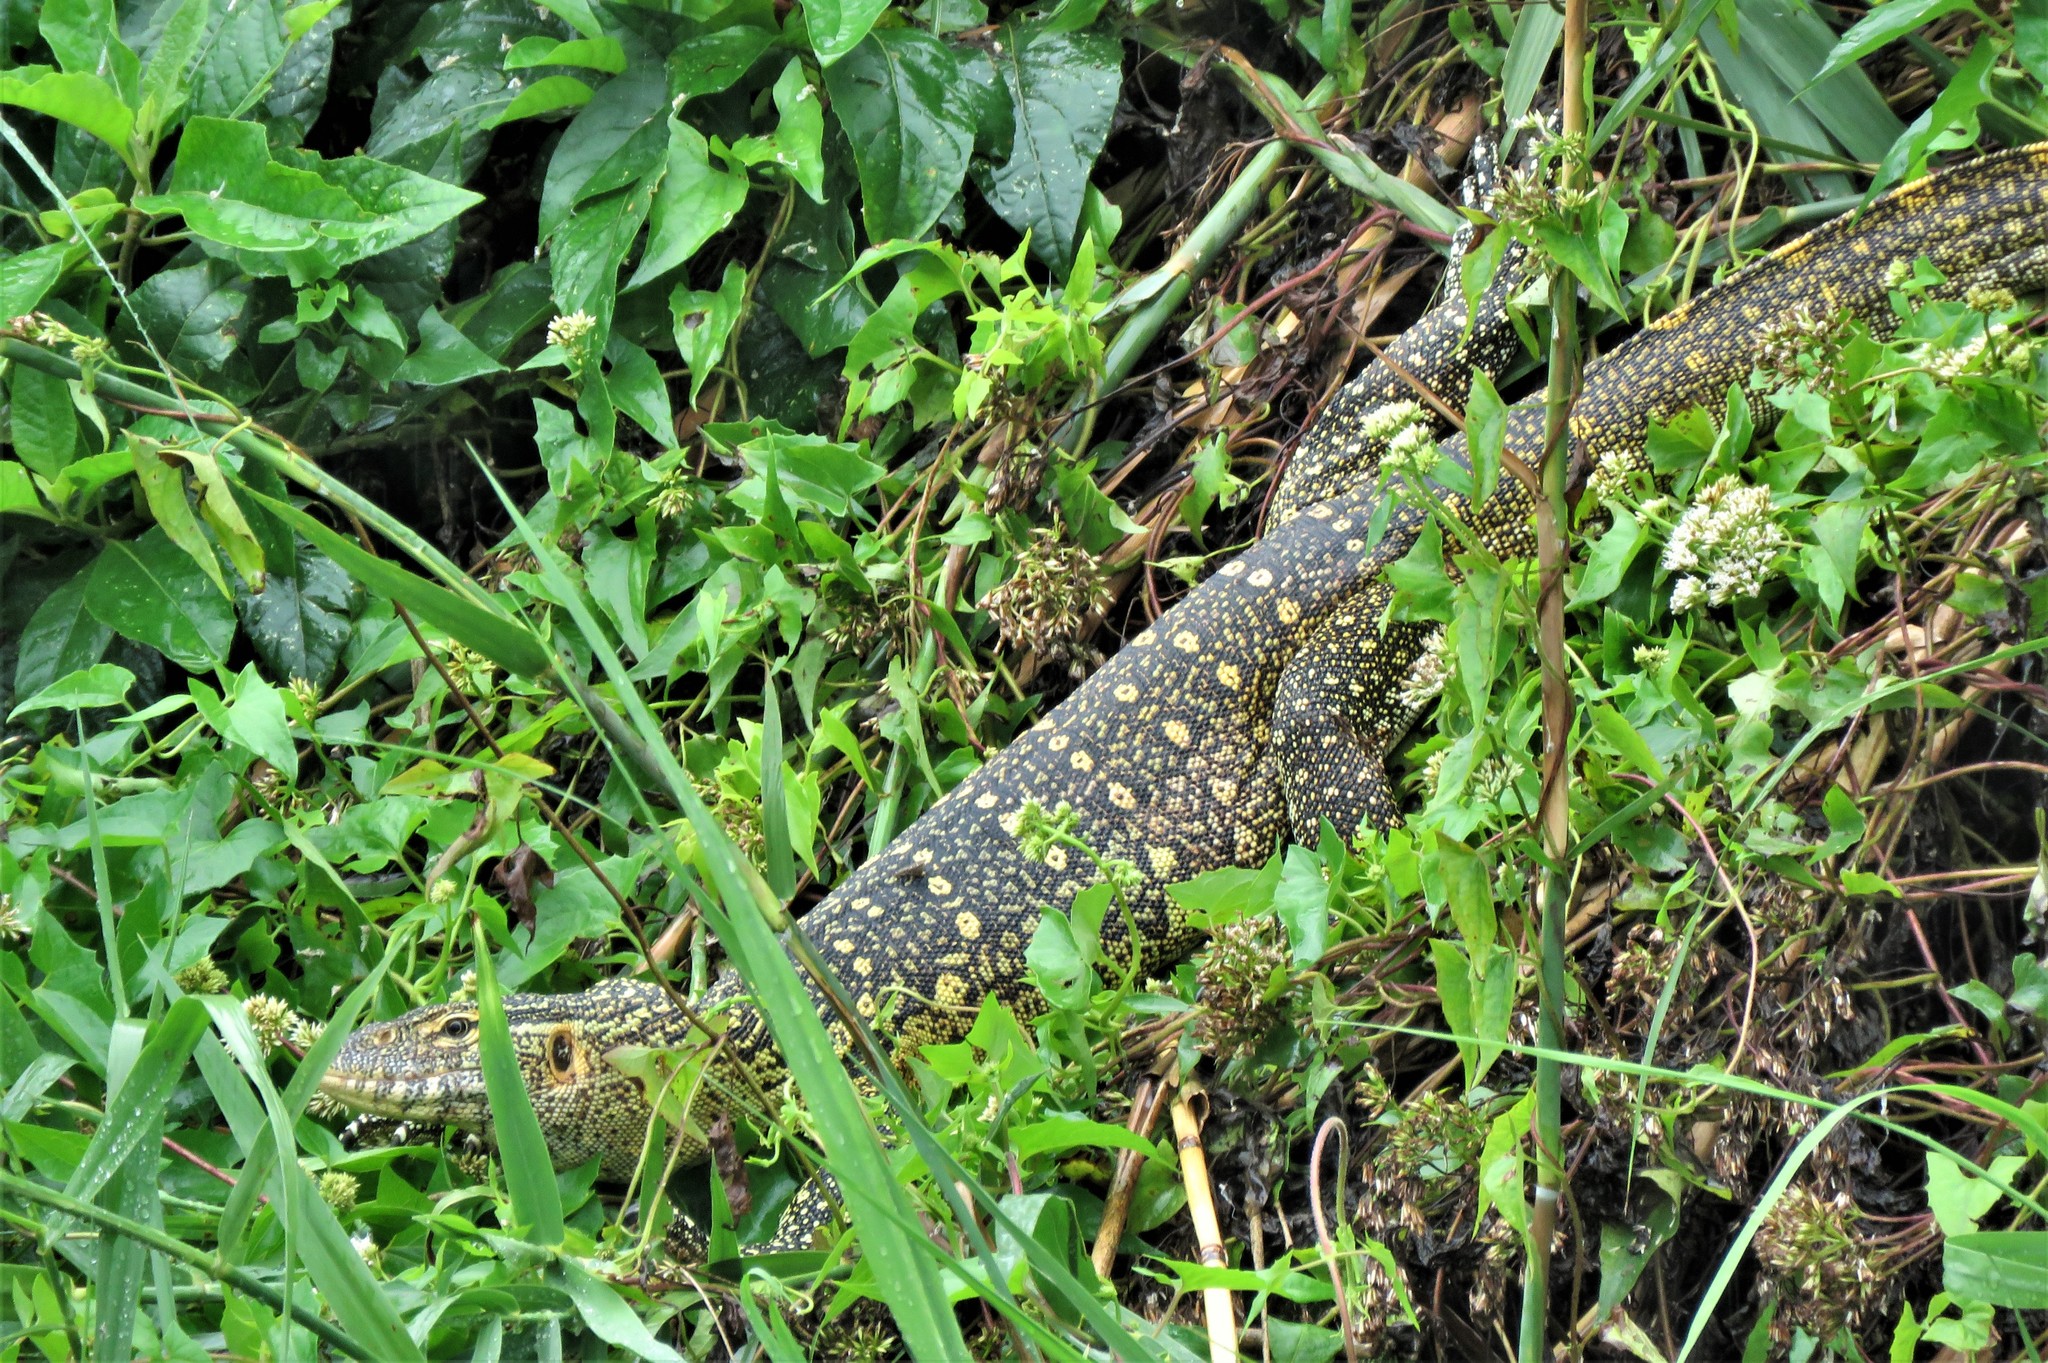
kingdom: Animalia
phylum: Chordata
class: Squamata
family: Varanidae
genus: Varanus
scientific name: Varanus niloticus
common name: Nile monitor
